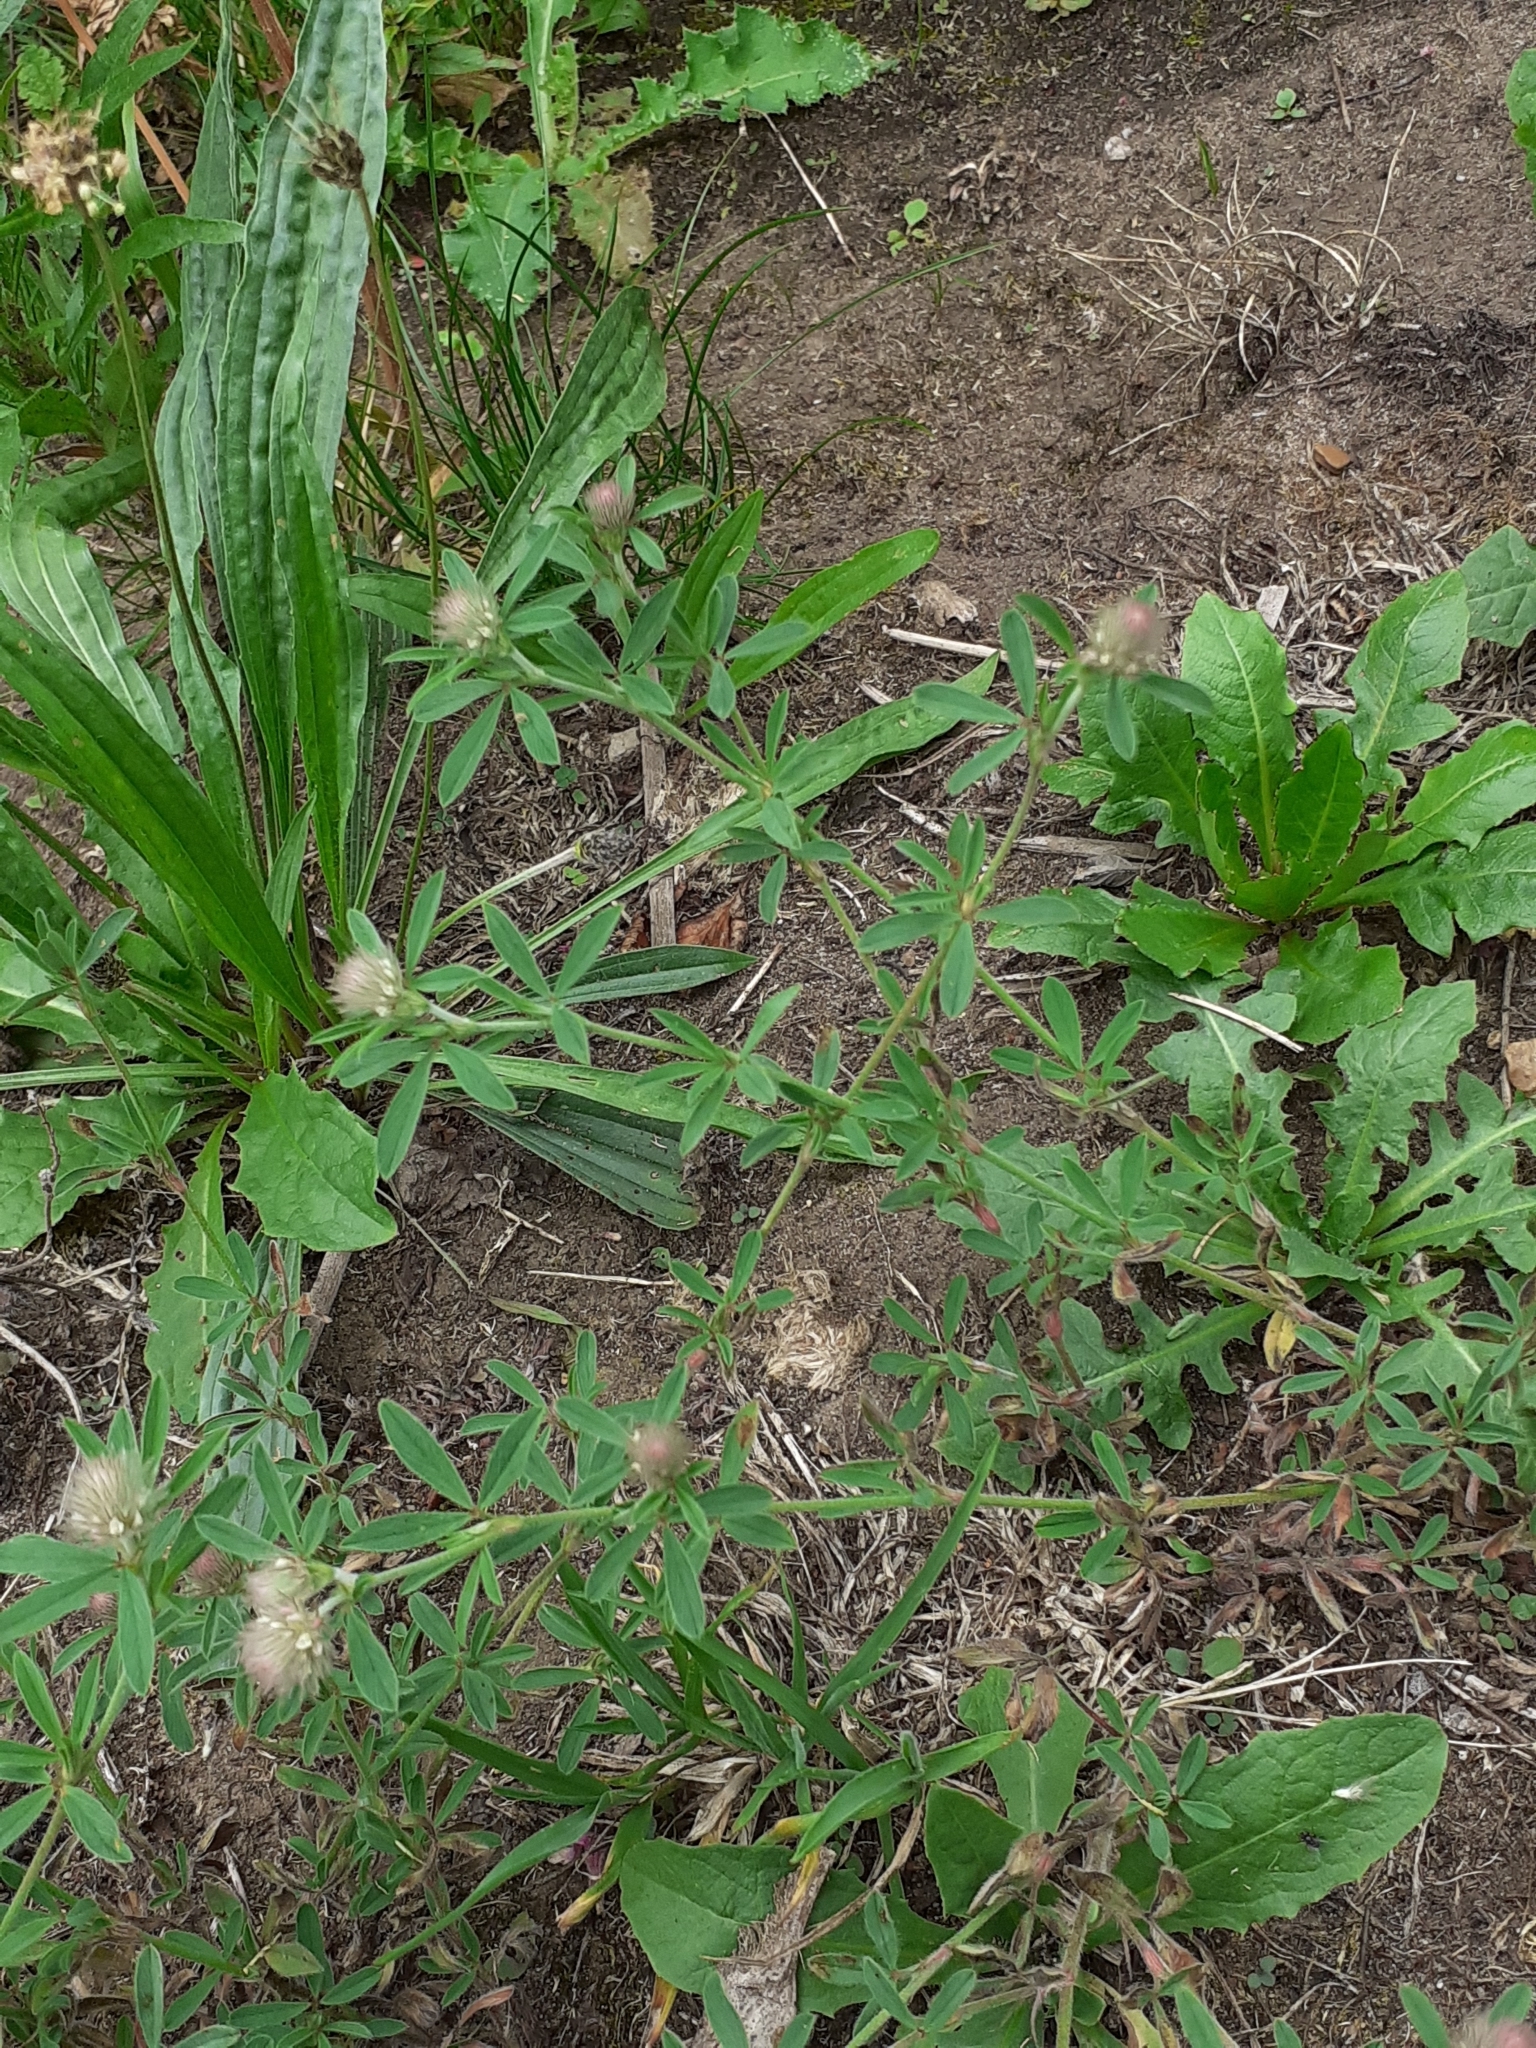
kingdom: Plantae
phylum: Tracheophyta
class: Magnoliopsida
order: Fabales
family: Fabaceae
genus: Trifolium
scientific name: Trifolium arvense
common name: Hare's-foot clover
